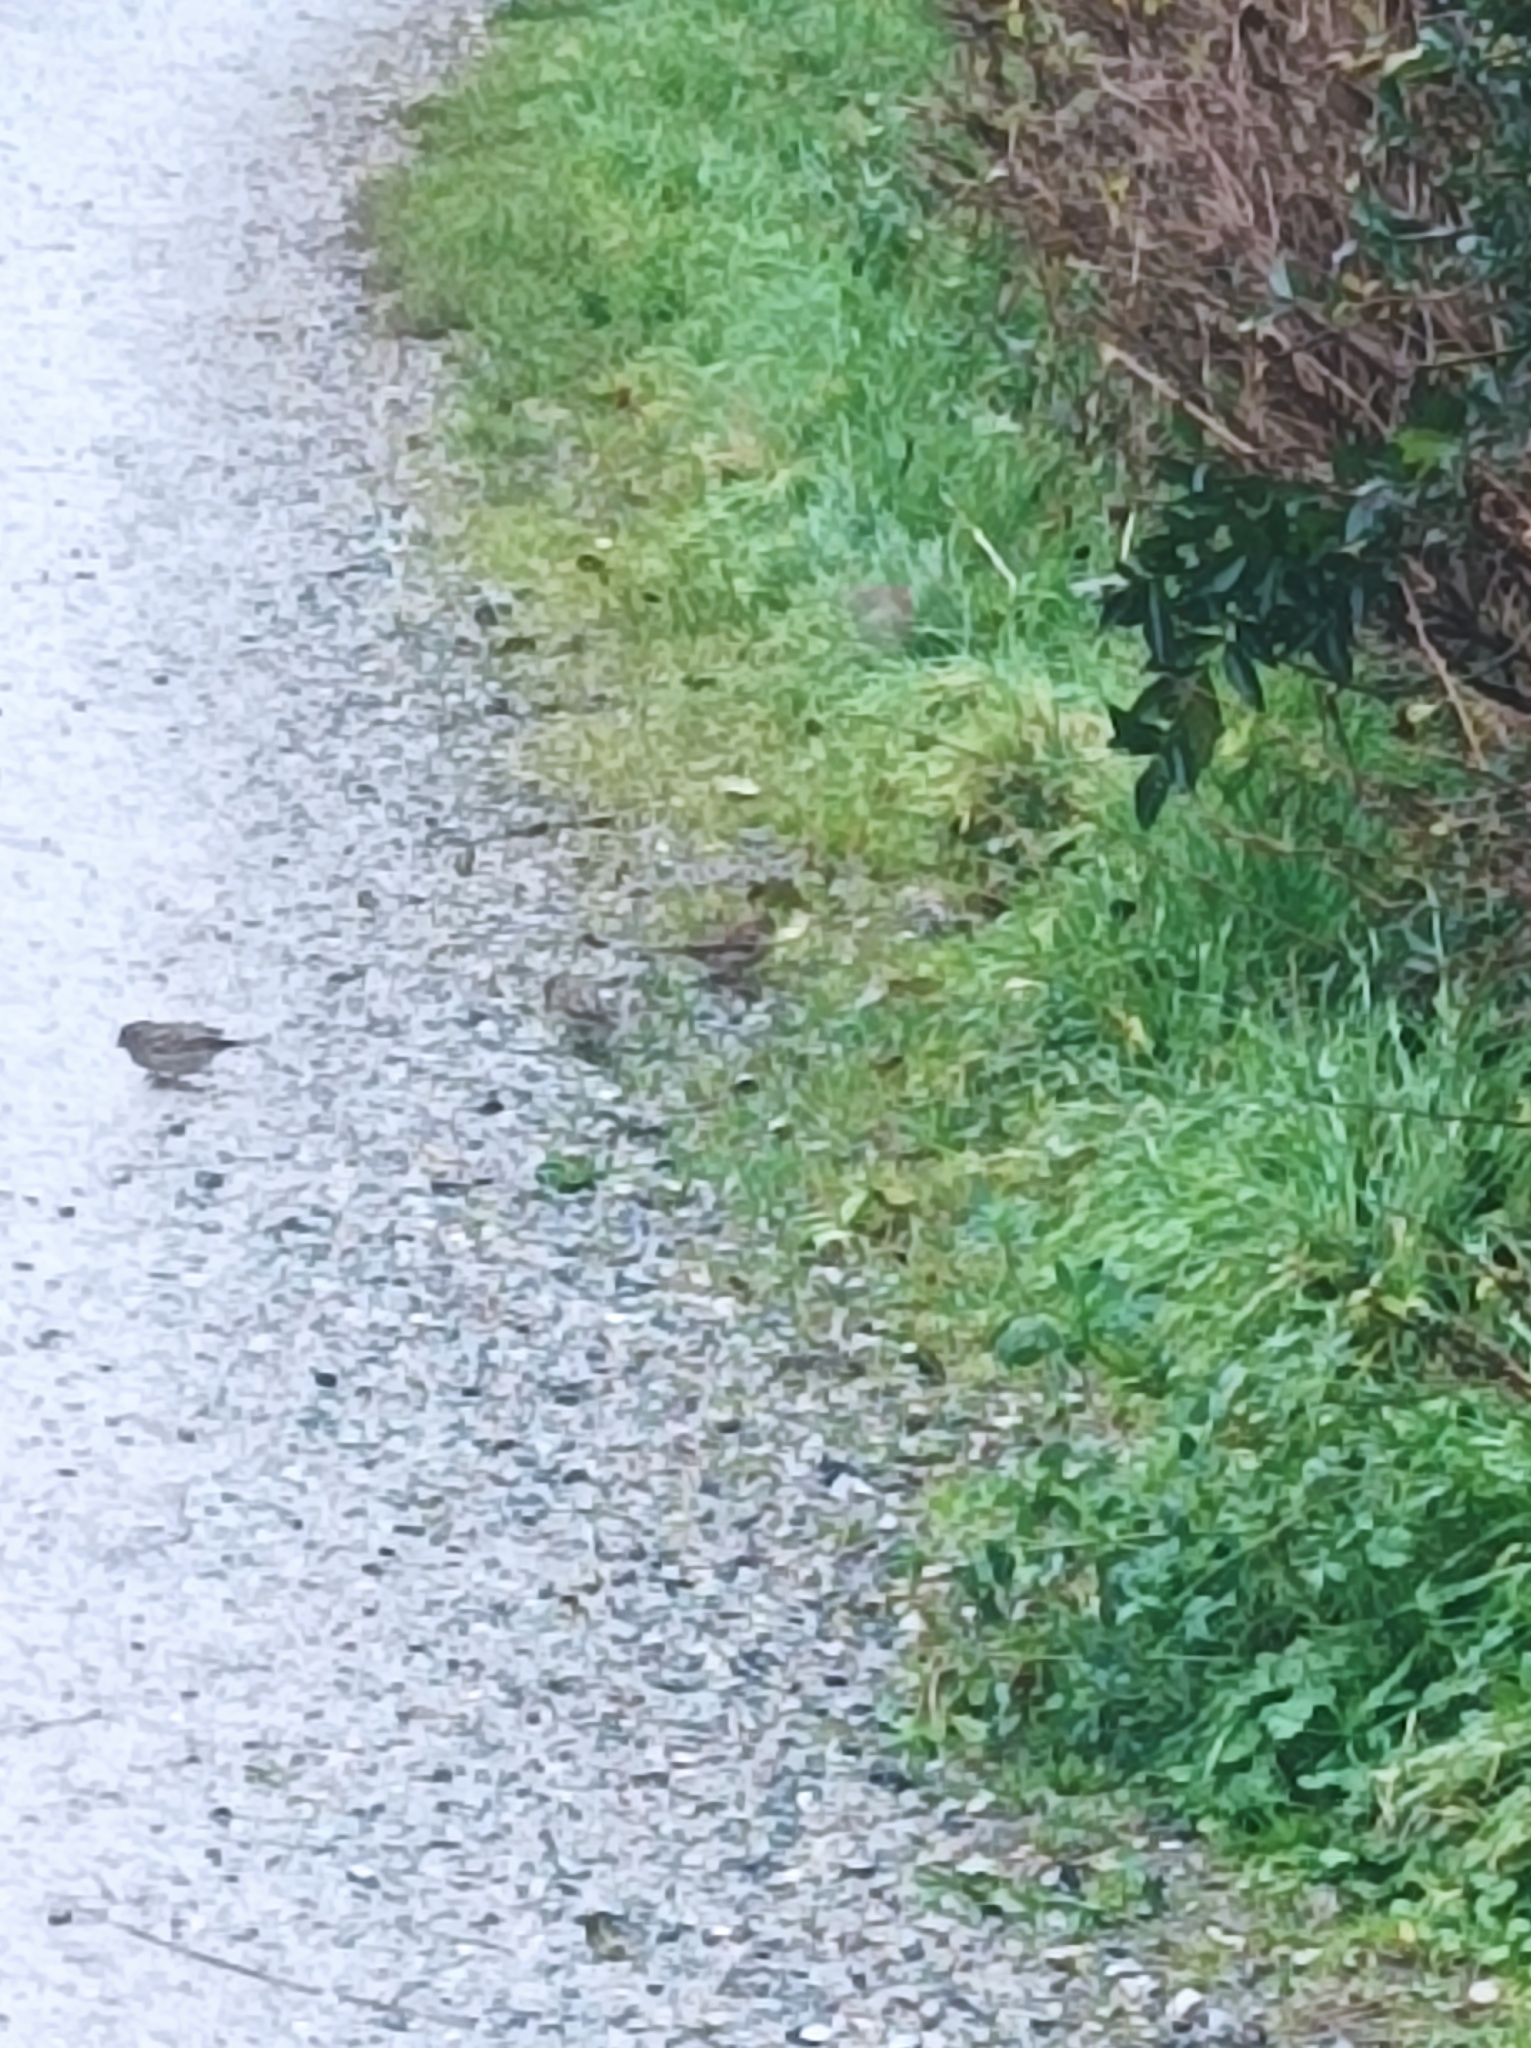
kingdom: Animalia
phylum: Chordata
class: Aves
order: Passeriformes
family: Passeridae
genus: Passer
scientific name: Passer domesticus
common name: House sparrow
